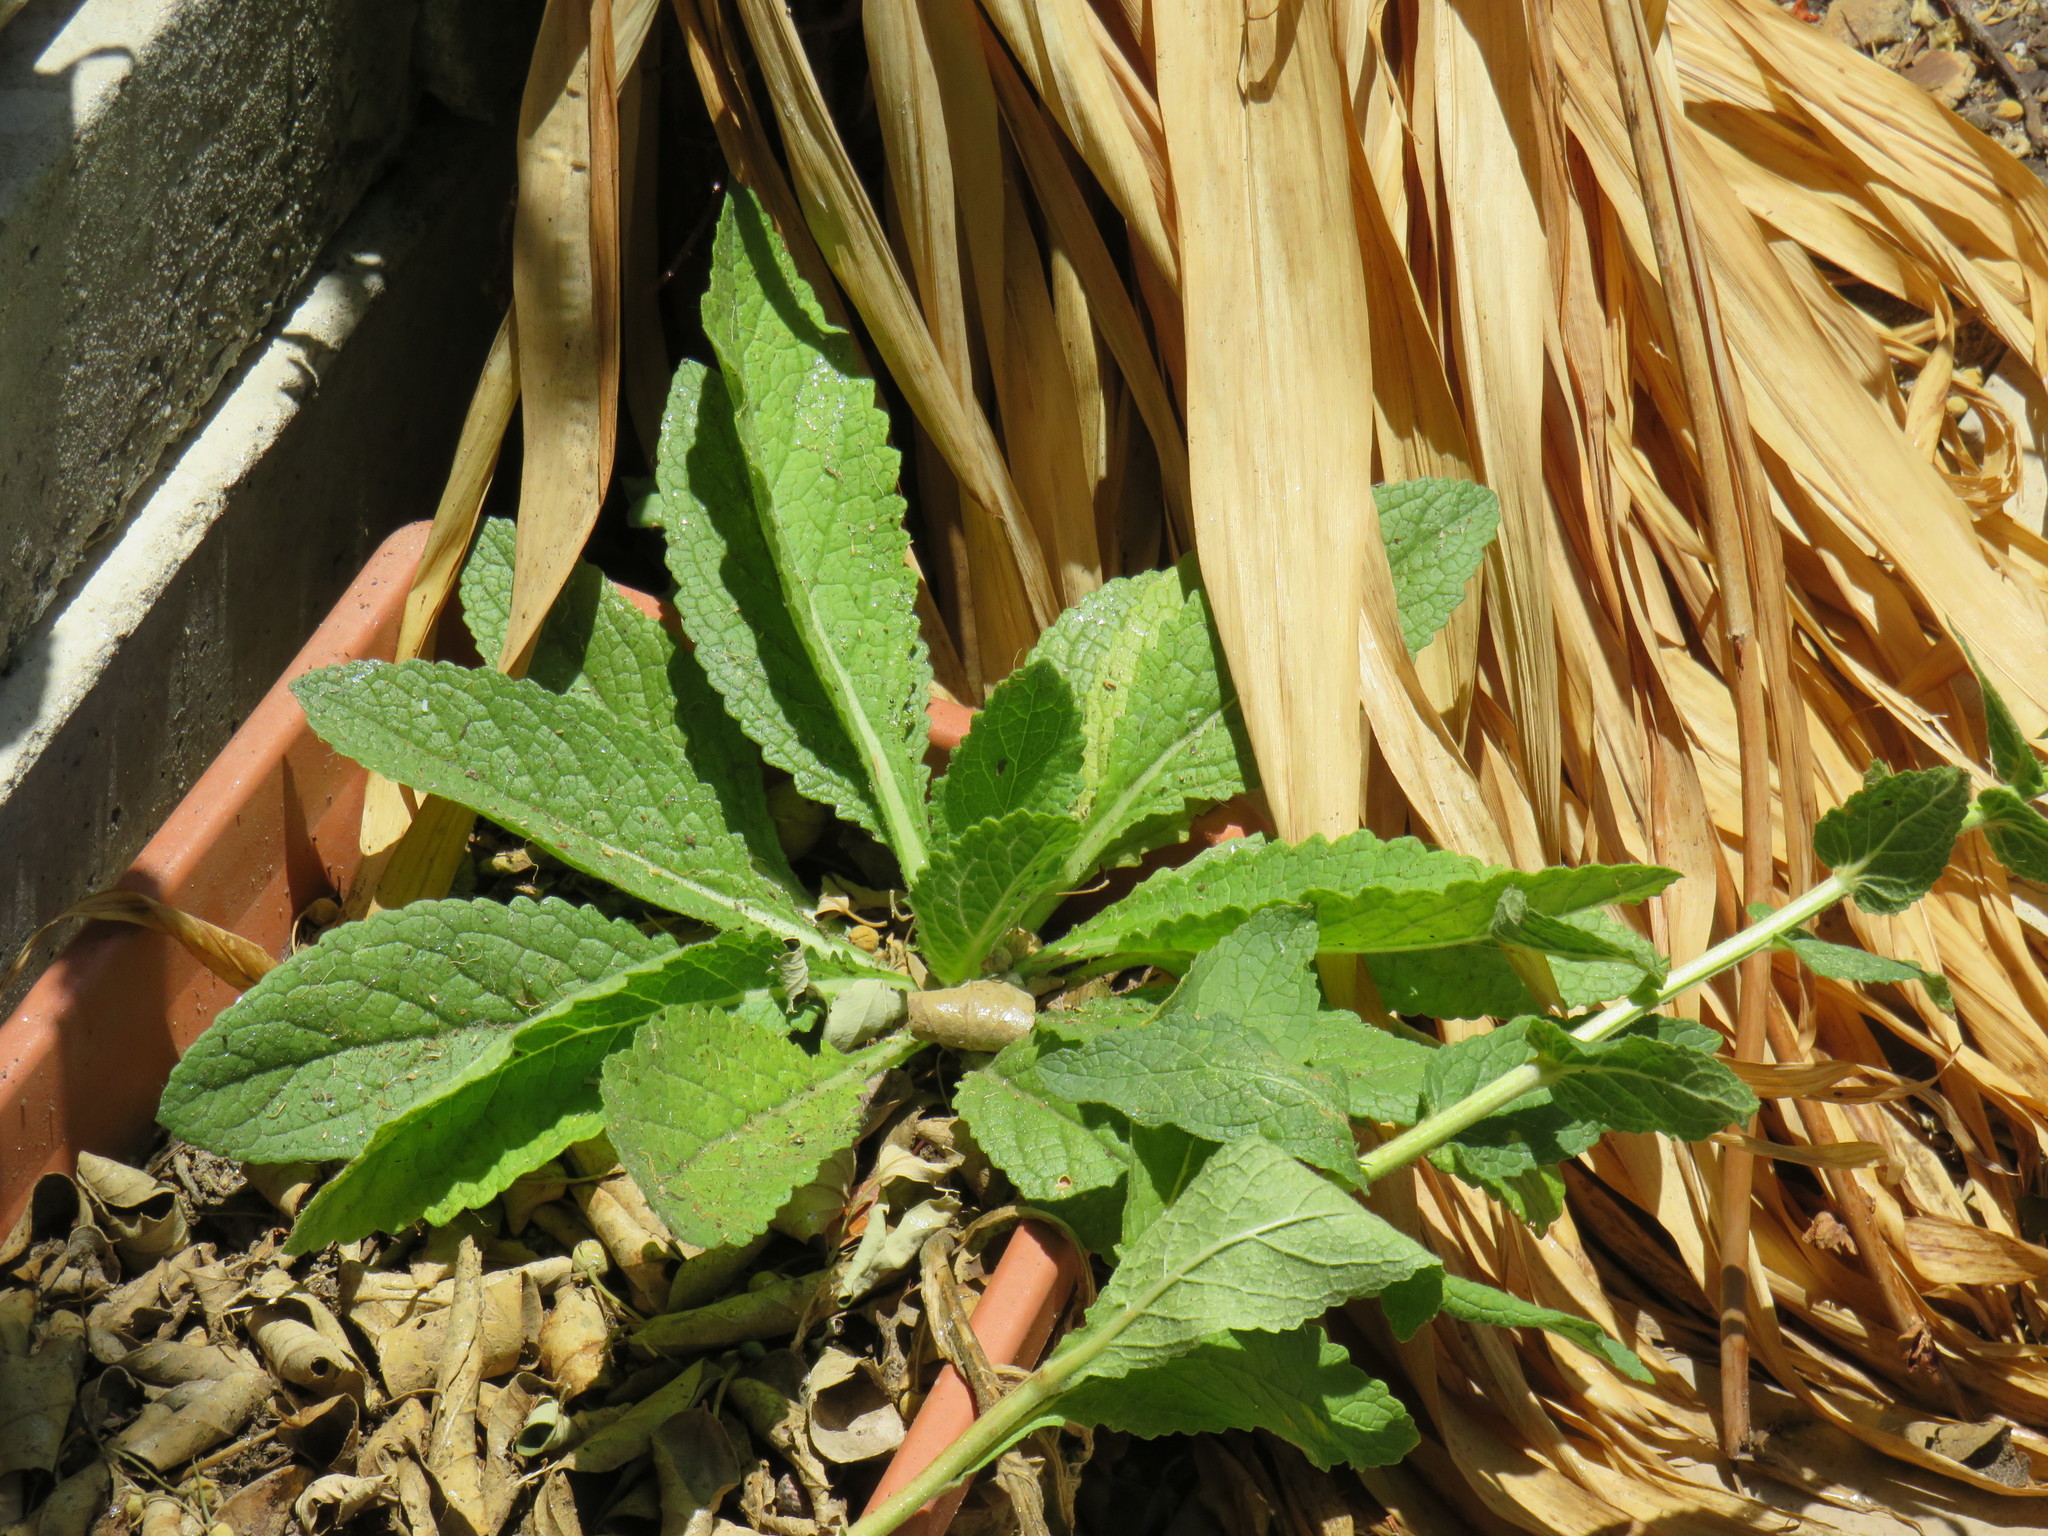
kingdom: Plantae
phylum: Tracheophyta
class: Magnoliopsida
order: Lamiales
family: Scrophulariaceae
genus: Verbascum
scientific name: Verbascum virgatum
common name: Twiggy mullein
